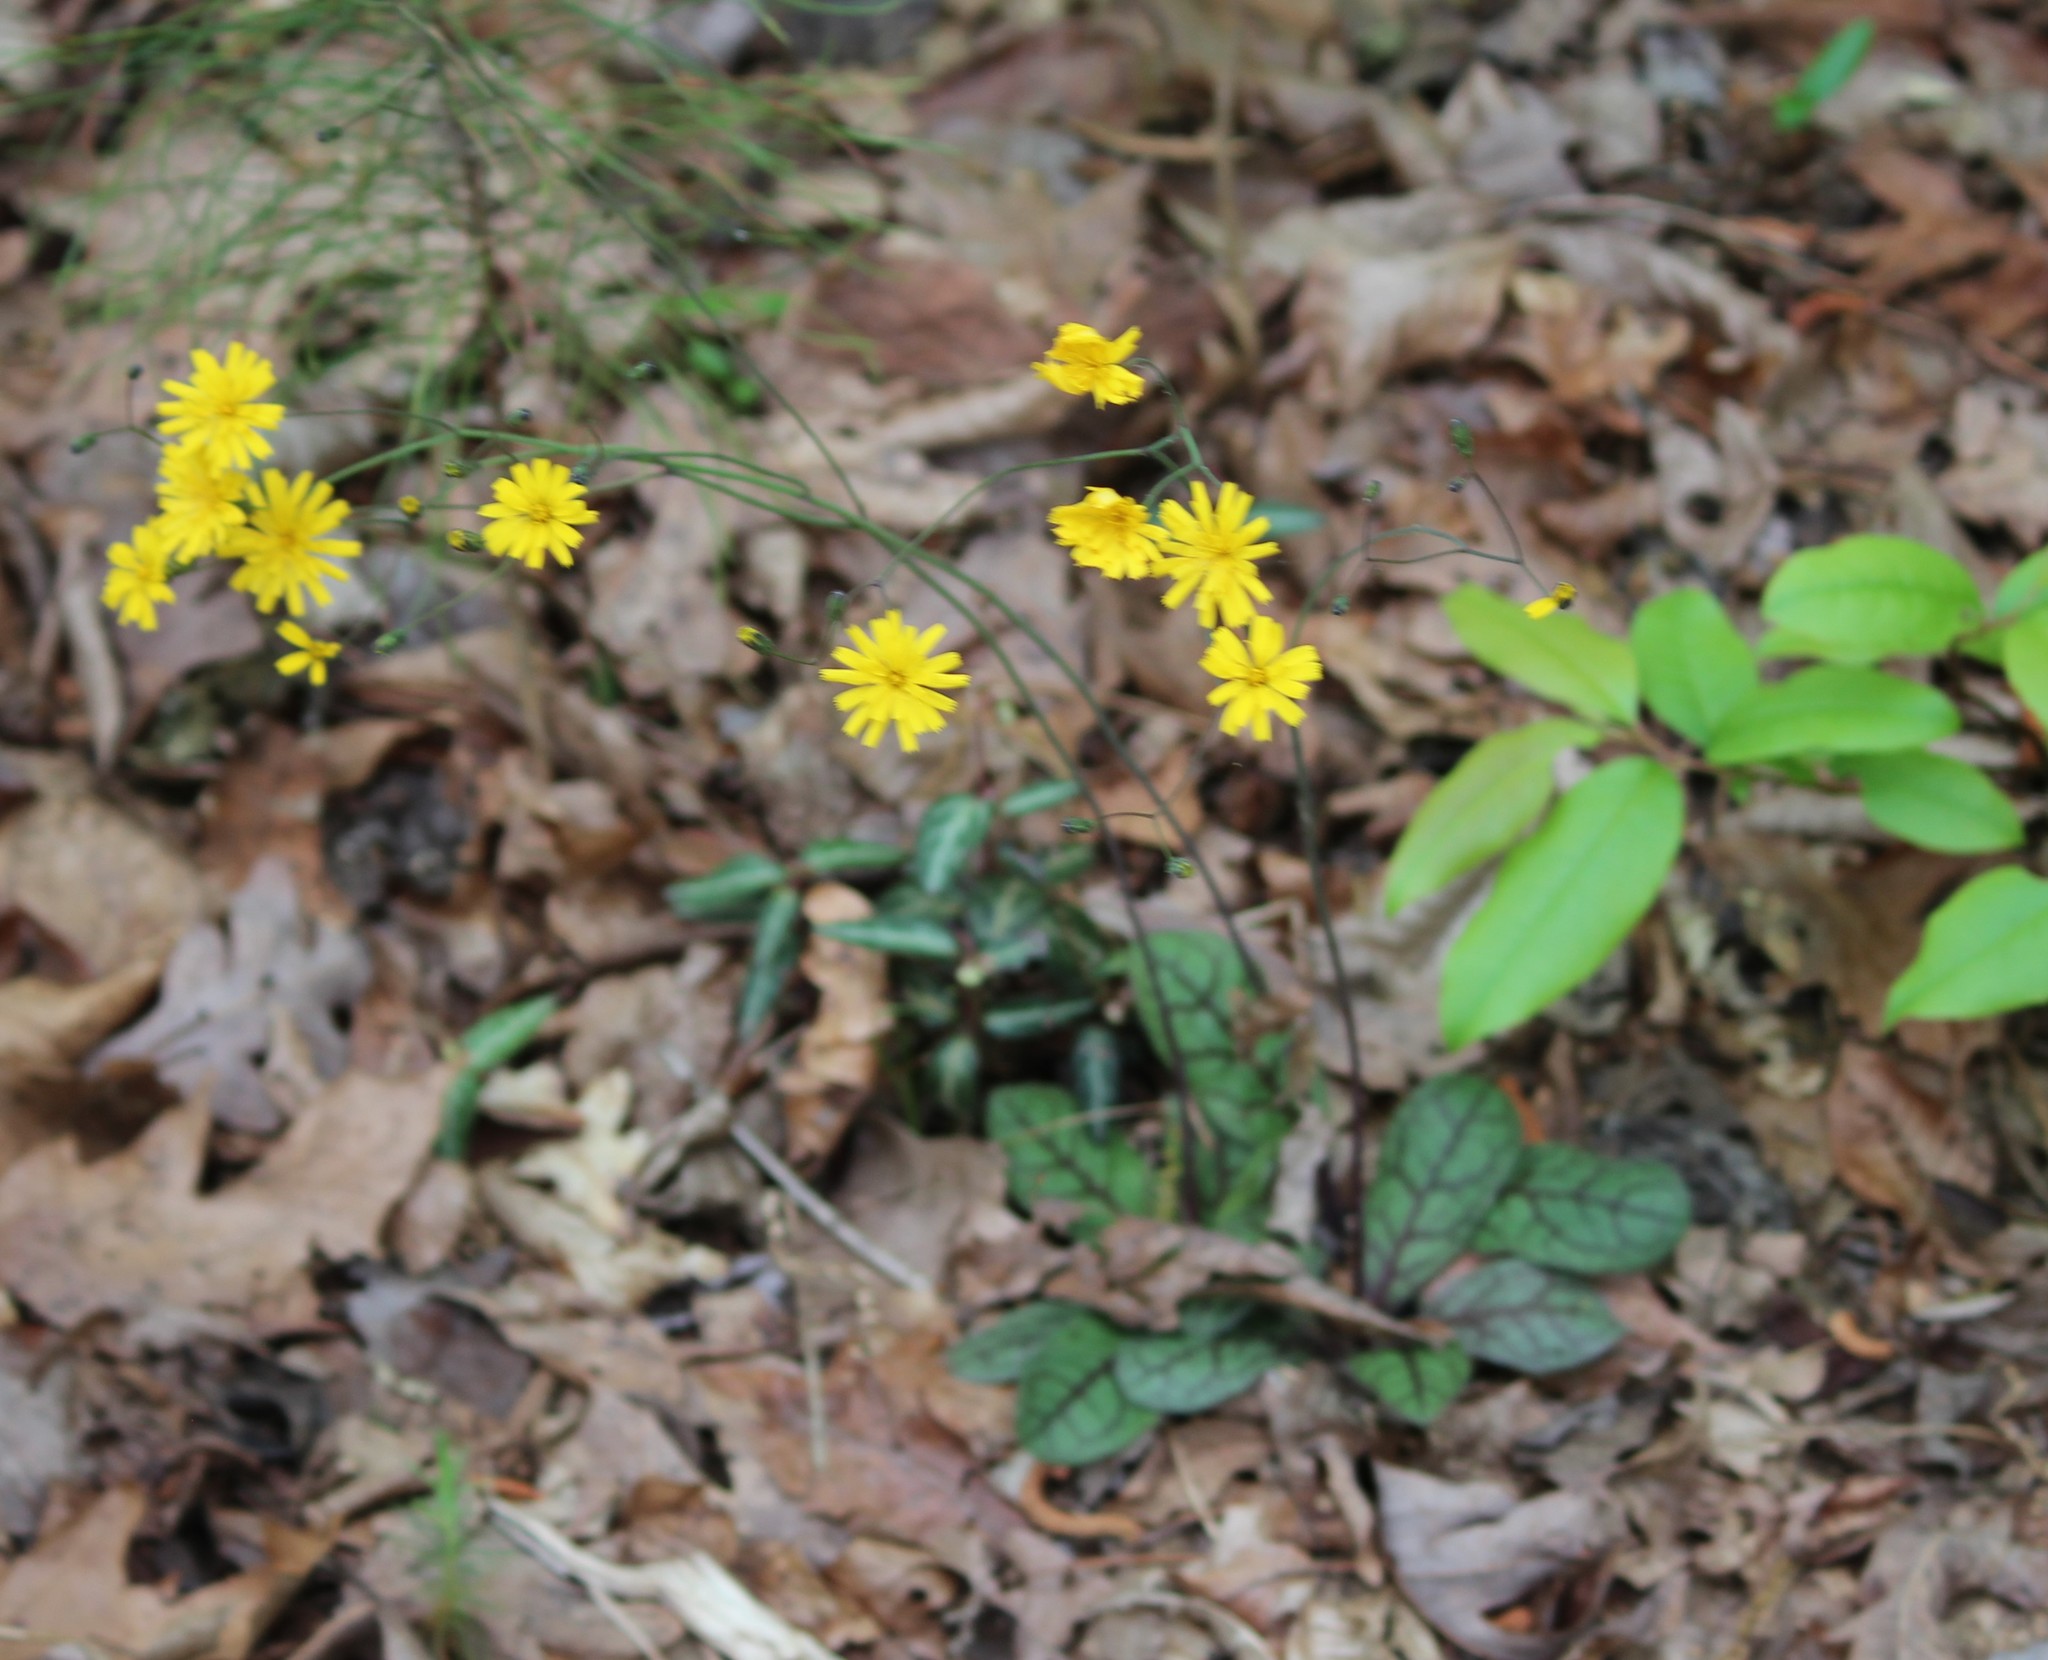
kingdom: Plantae
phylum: Tracheophyta
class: Magnoliopsida
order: Asterales
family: Asteraceae
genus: Hieracium
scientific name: Hieracium venosum
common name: Rattlesnake hawkweed
